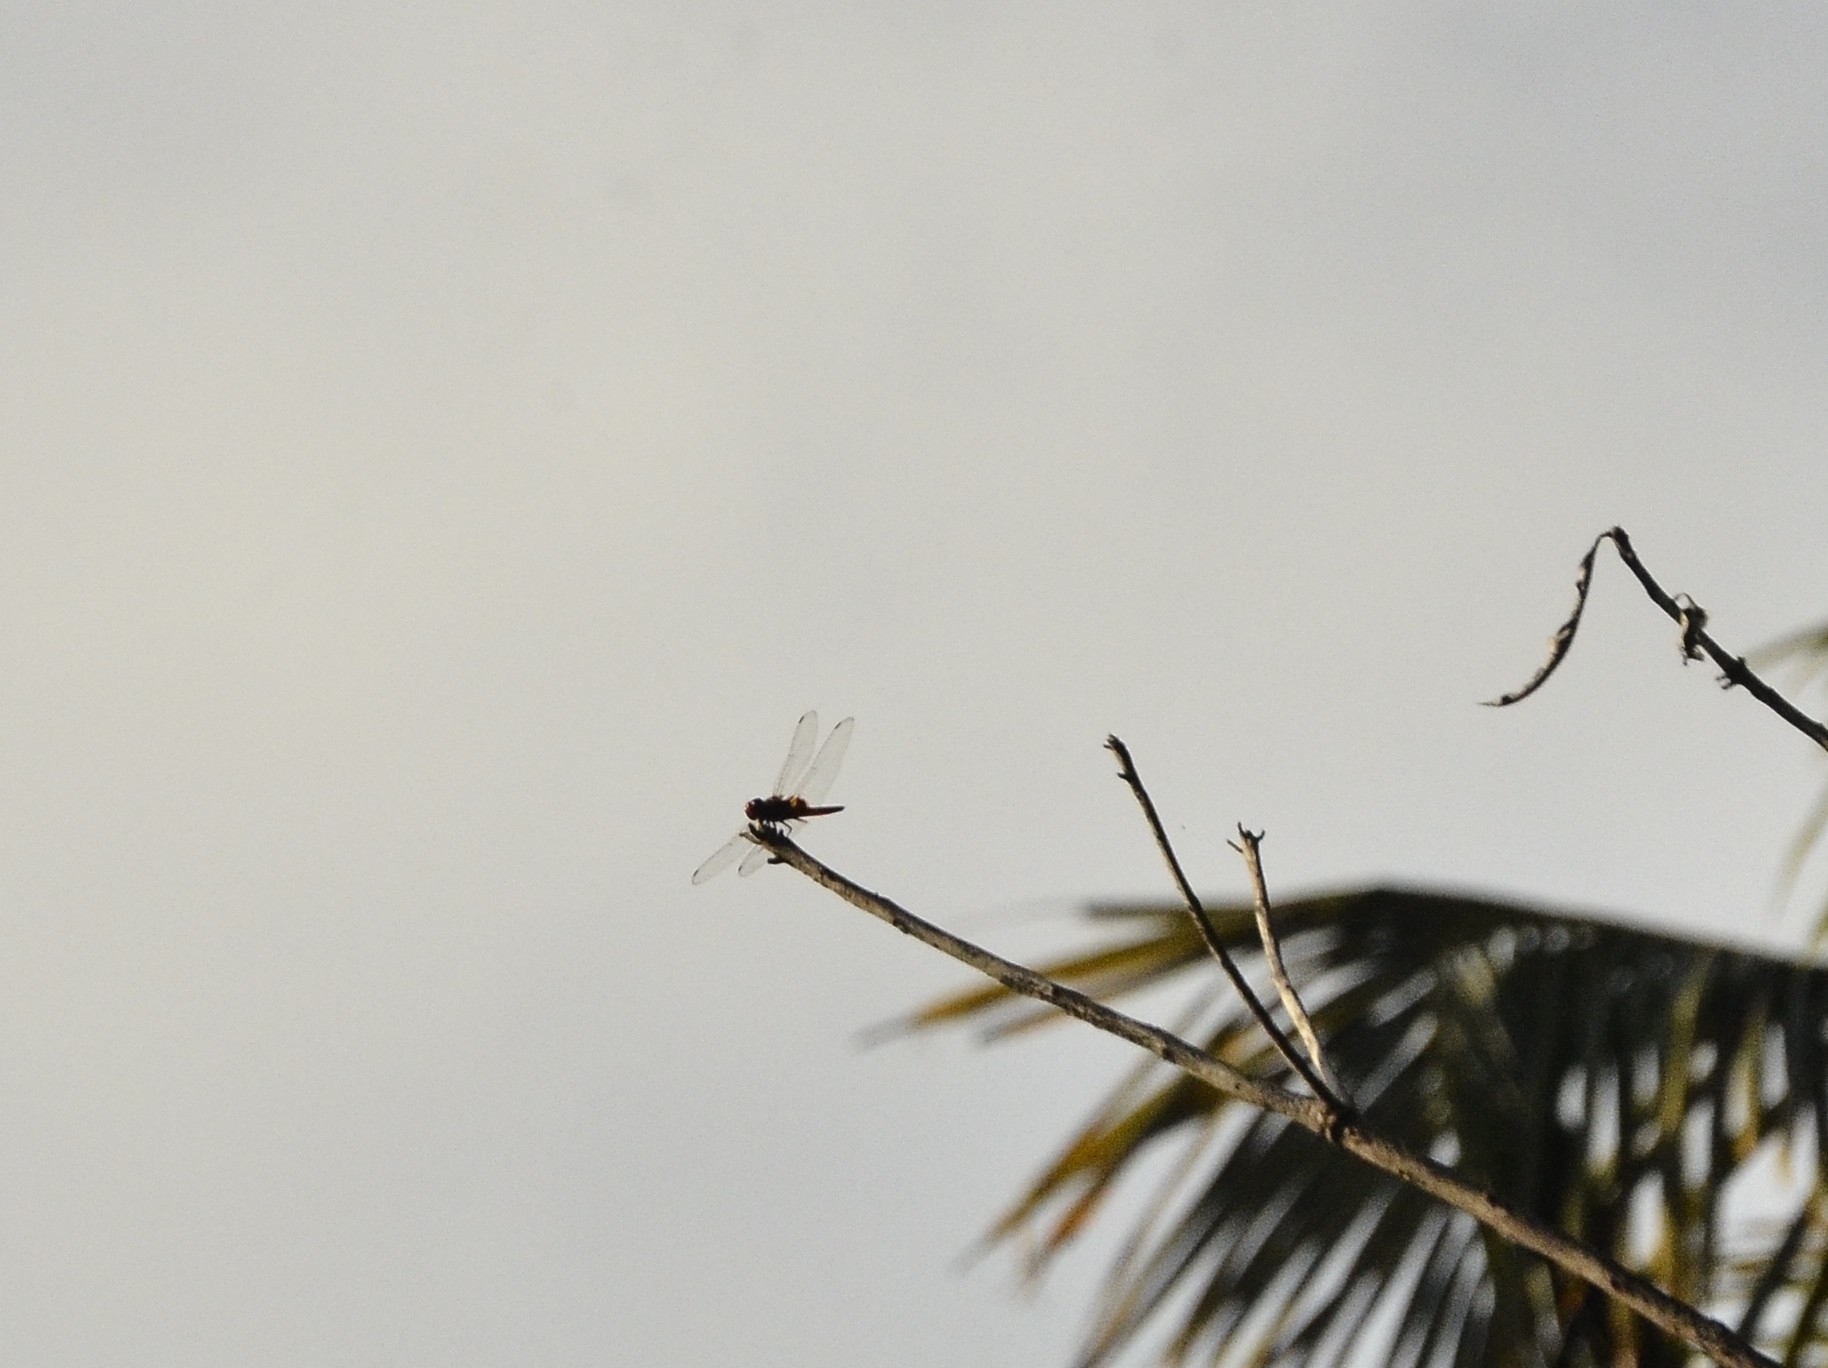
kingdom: Animalia
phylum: Arthropoda
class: Insecta
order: Odonata
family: Libellulidae
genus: Urothemis
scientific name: Urothemis signata
